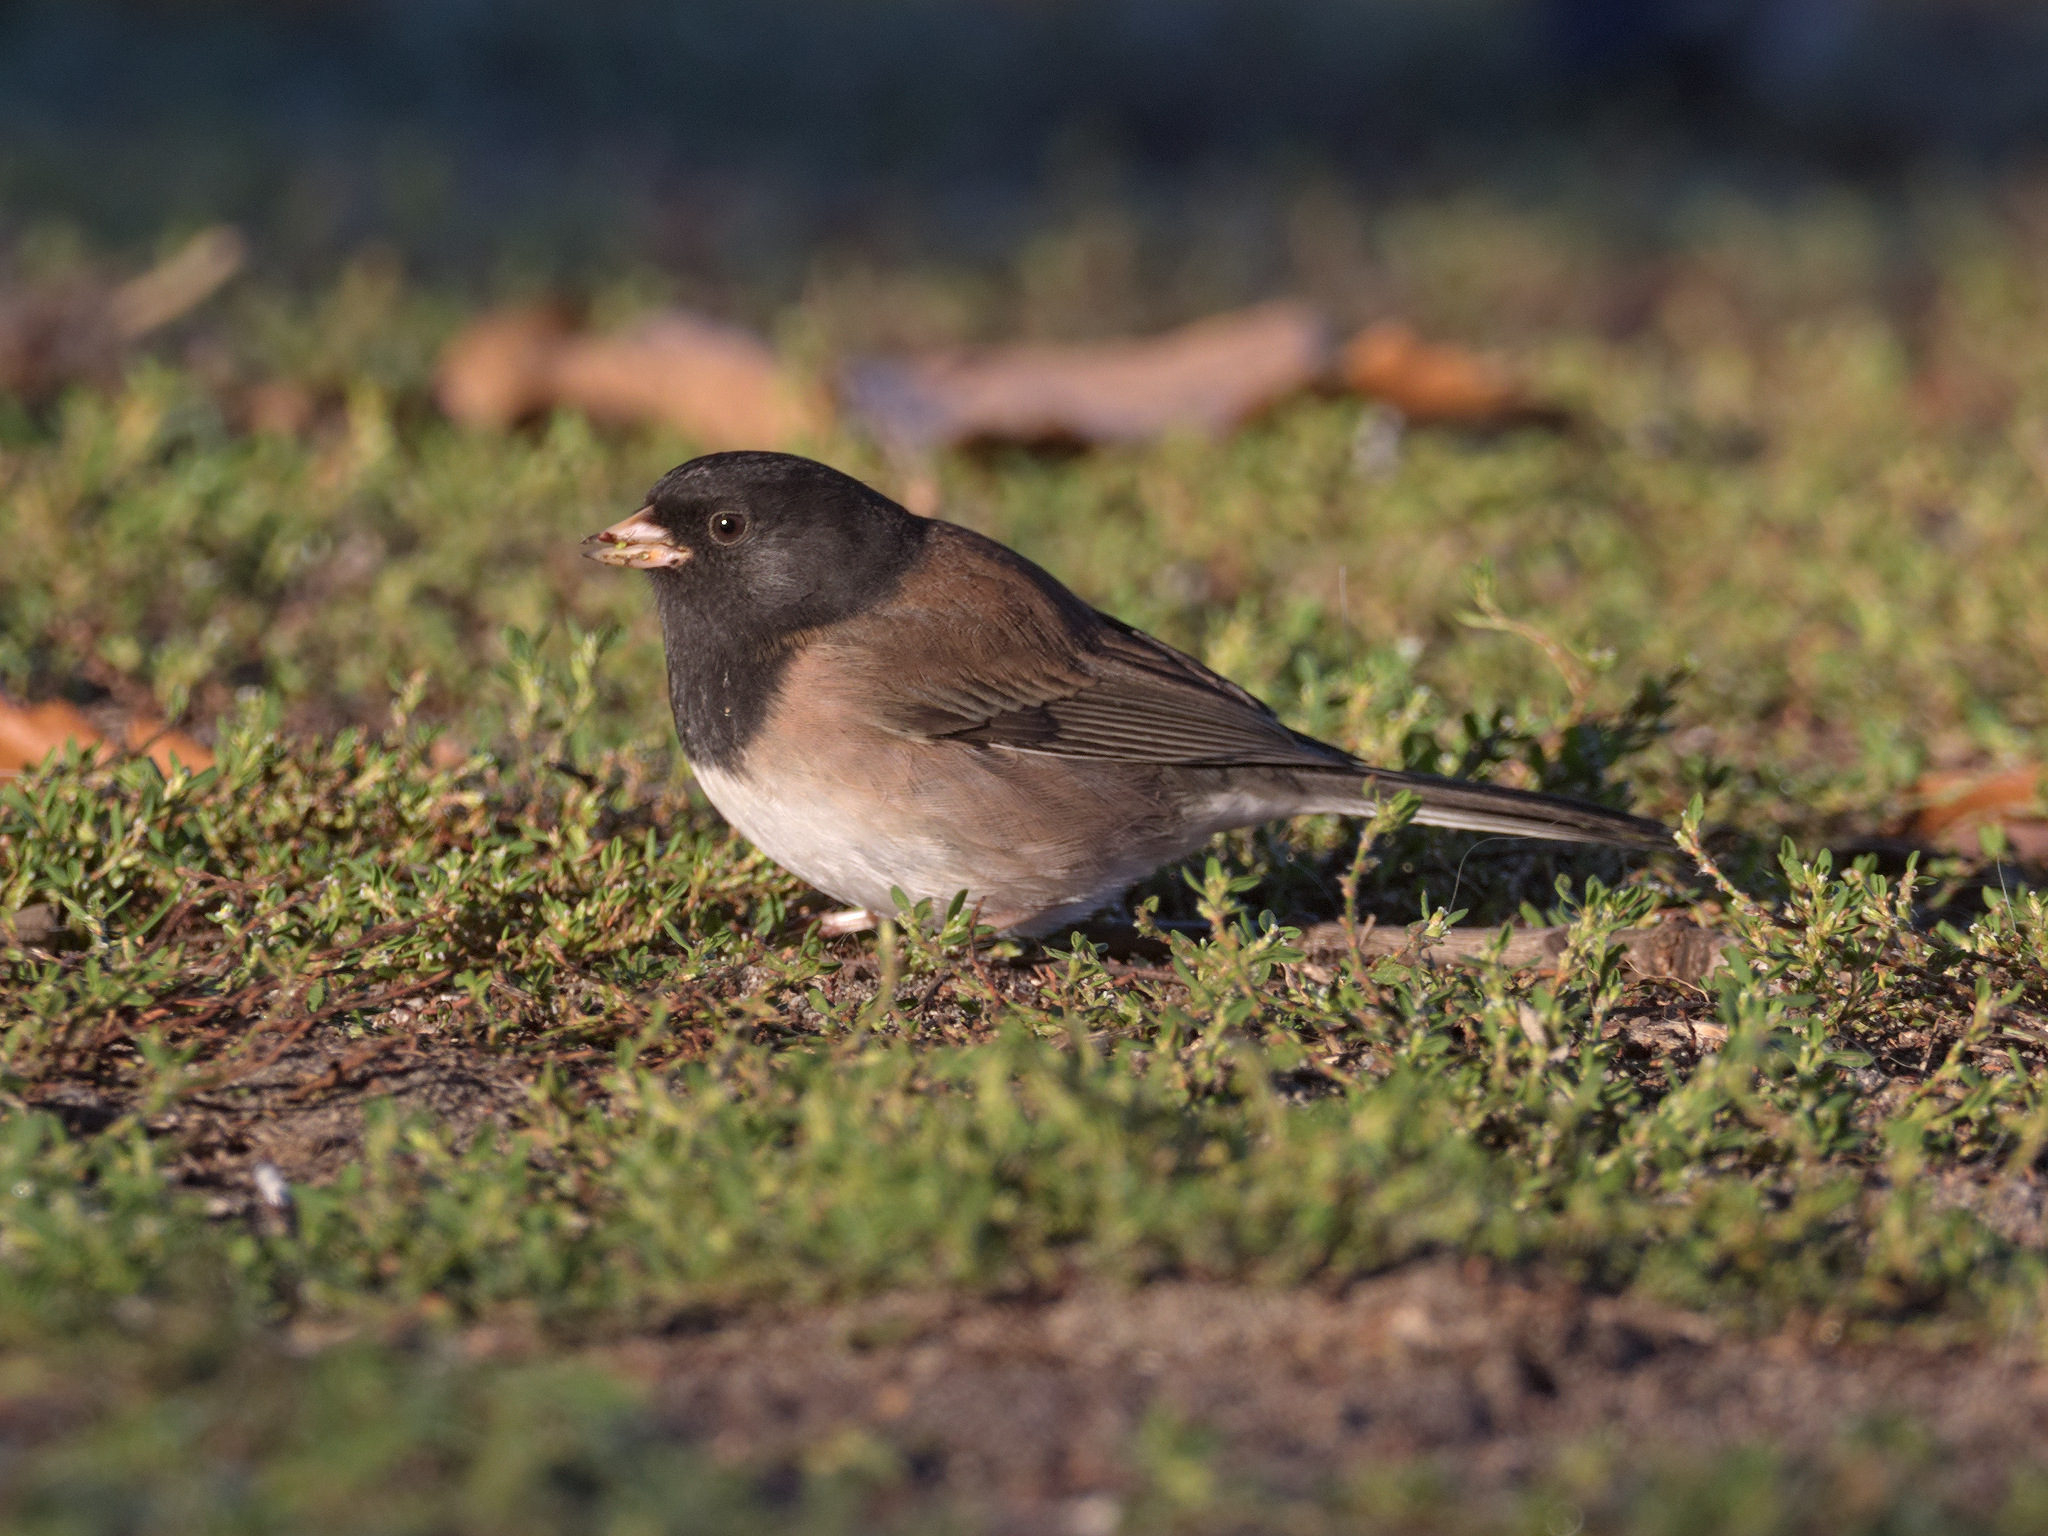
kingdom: Animalia
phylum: Chordata
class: Aves
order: Passeriformes
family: Passerellidae
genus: Junco
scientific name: Junco hyemalis
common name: Dark-eyed junco
